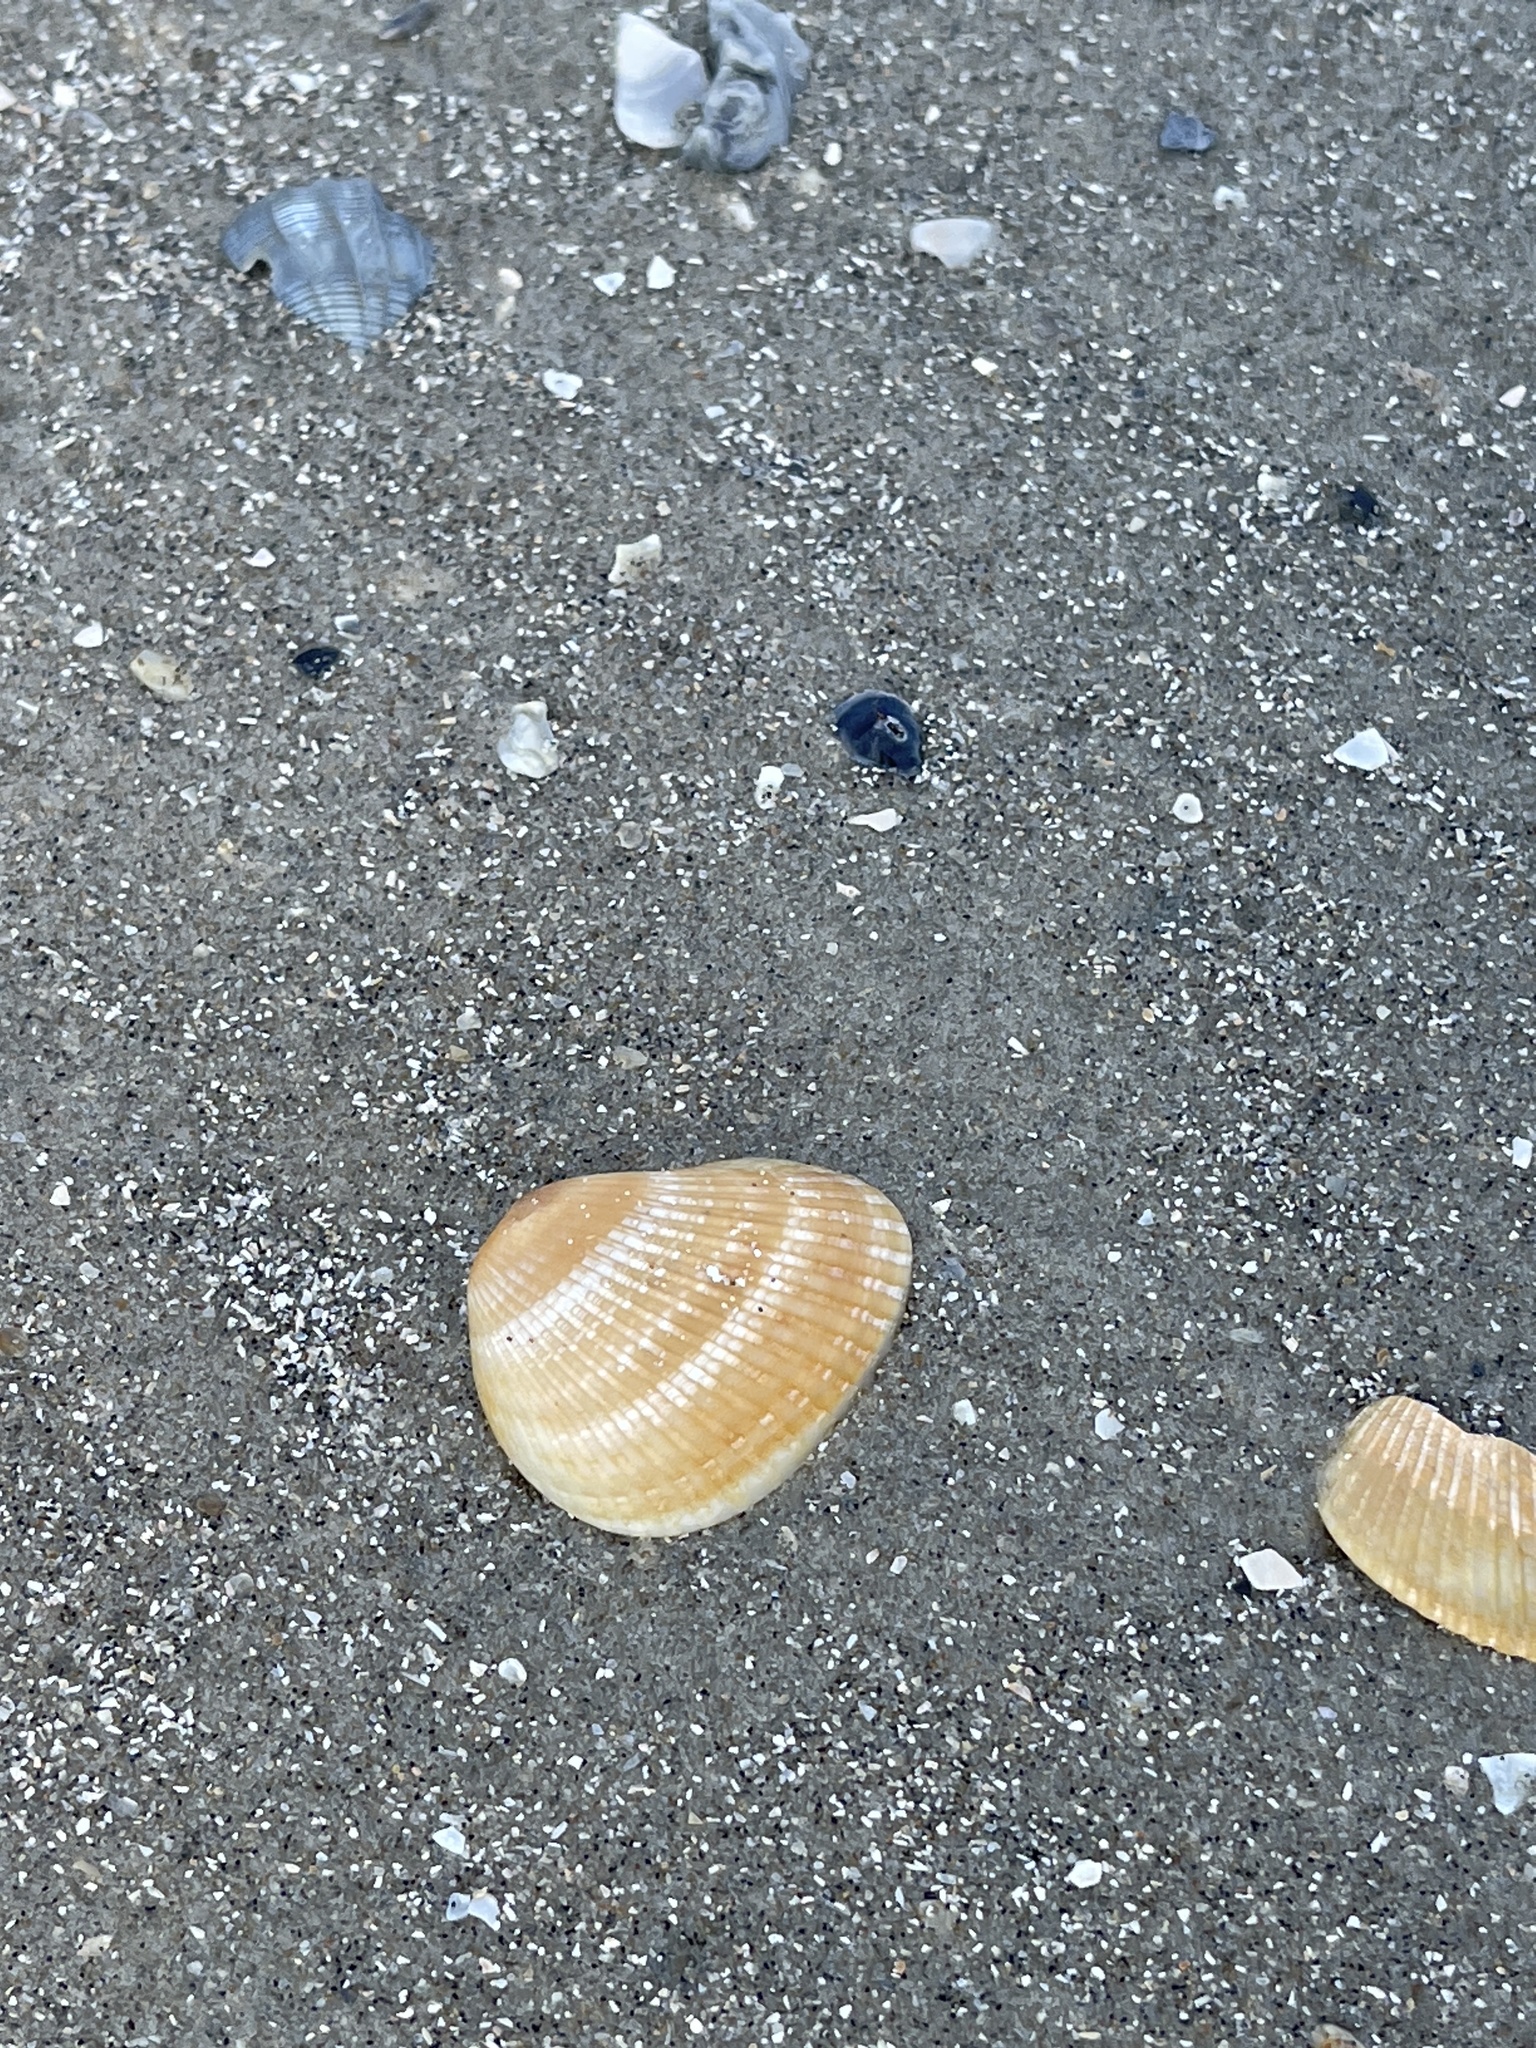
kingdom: Animalia
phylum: Mollusca
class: Bivalvia
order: Arcida
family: Noetiidae
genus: Noetia
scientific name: Noetia ponderosa
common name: Ponderous ark
